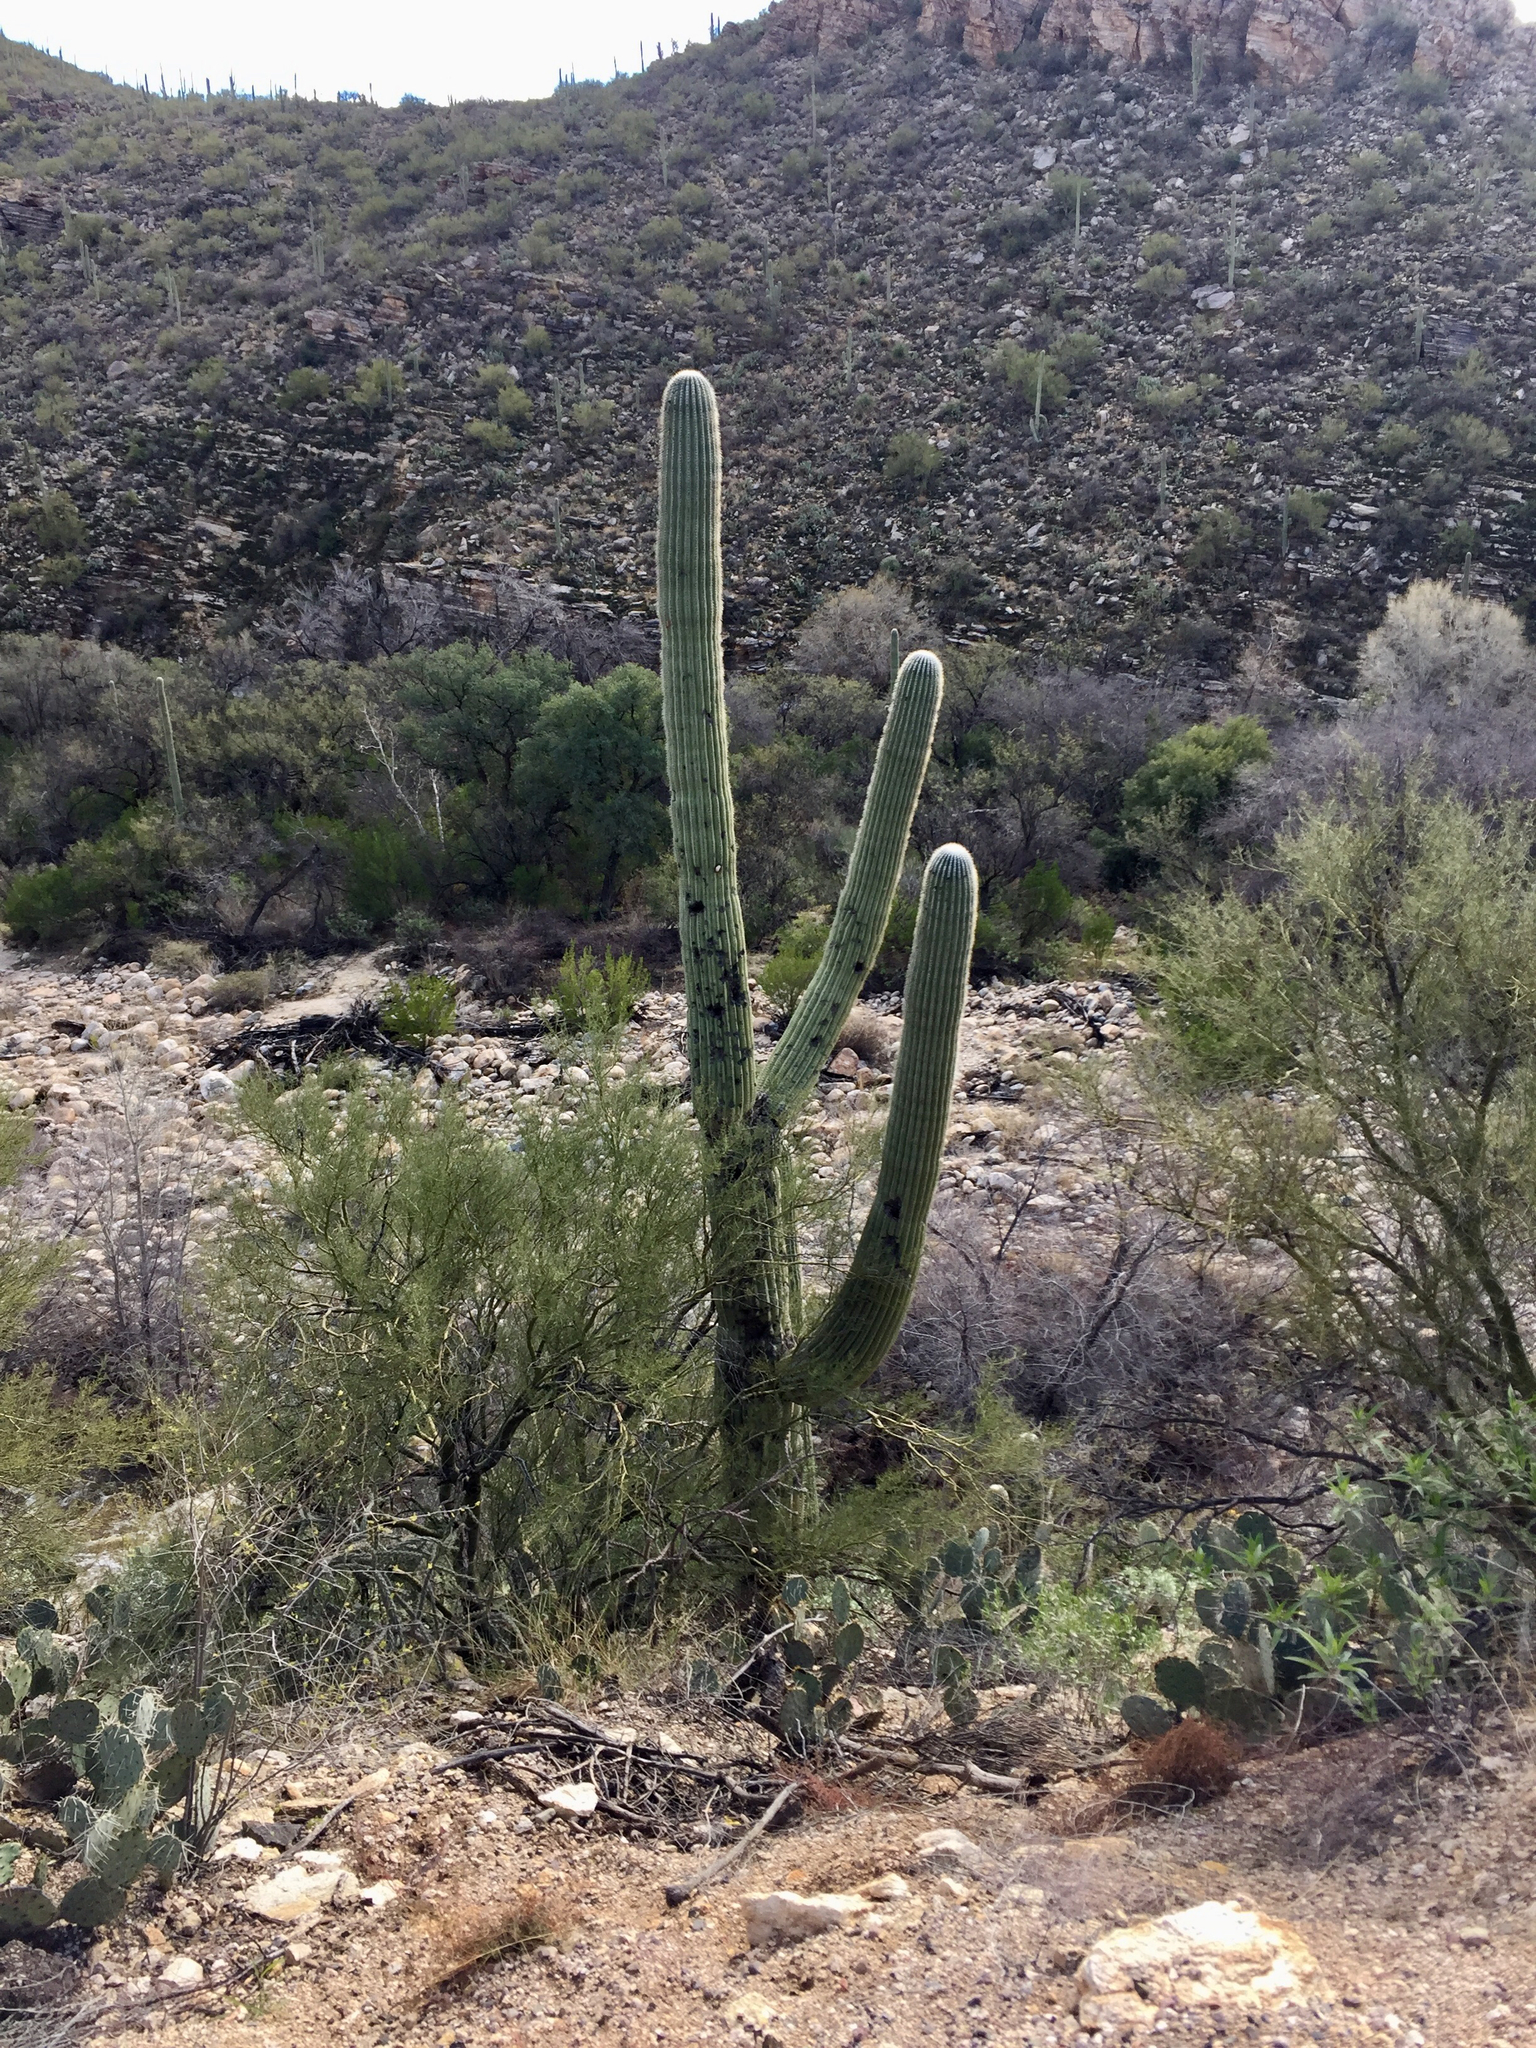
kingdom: Plantae
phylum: Tracheophyta
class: Magnoliopsida
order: Caryophyllales
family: Cactaceae
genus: Carnegiea
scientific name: Carnegiea gigantea
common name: Saguaro
